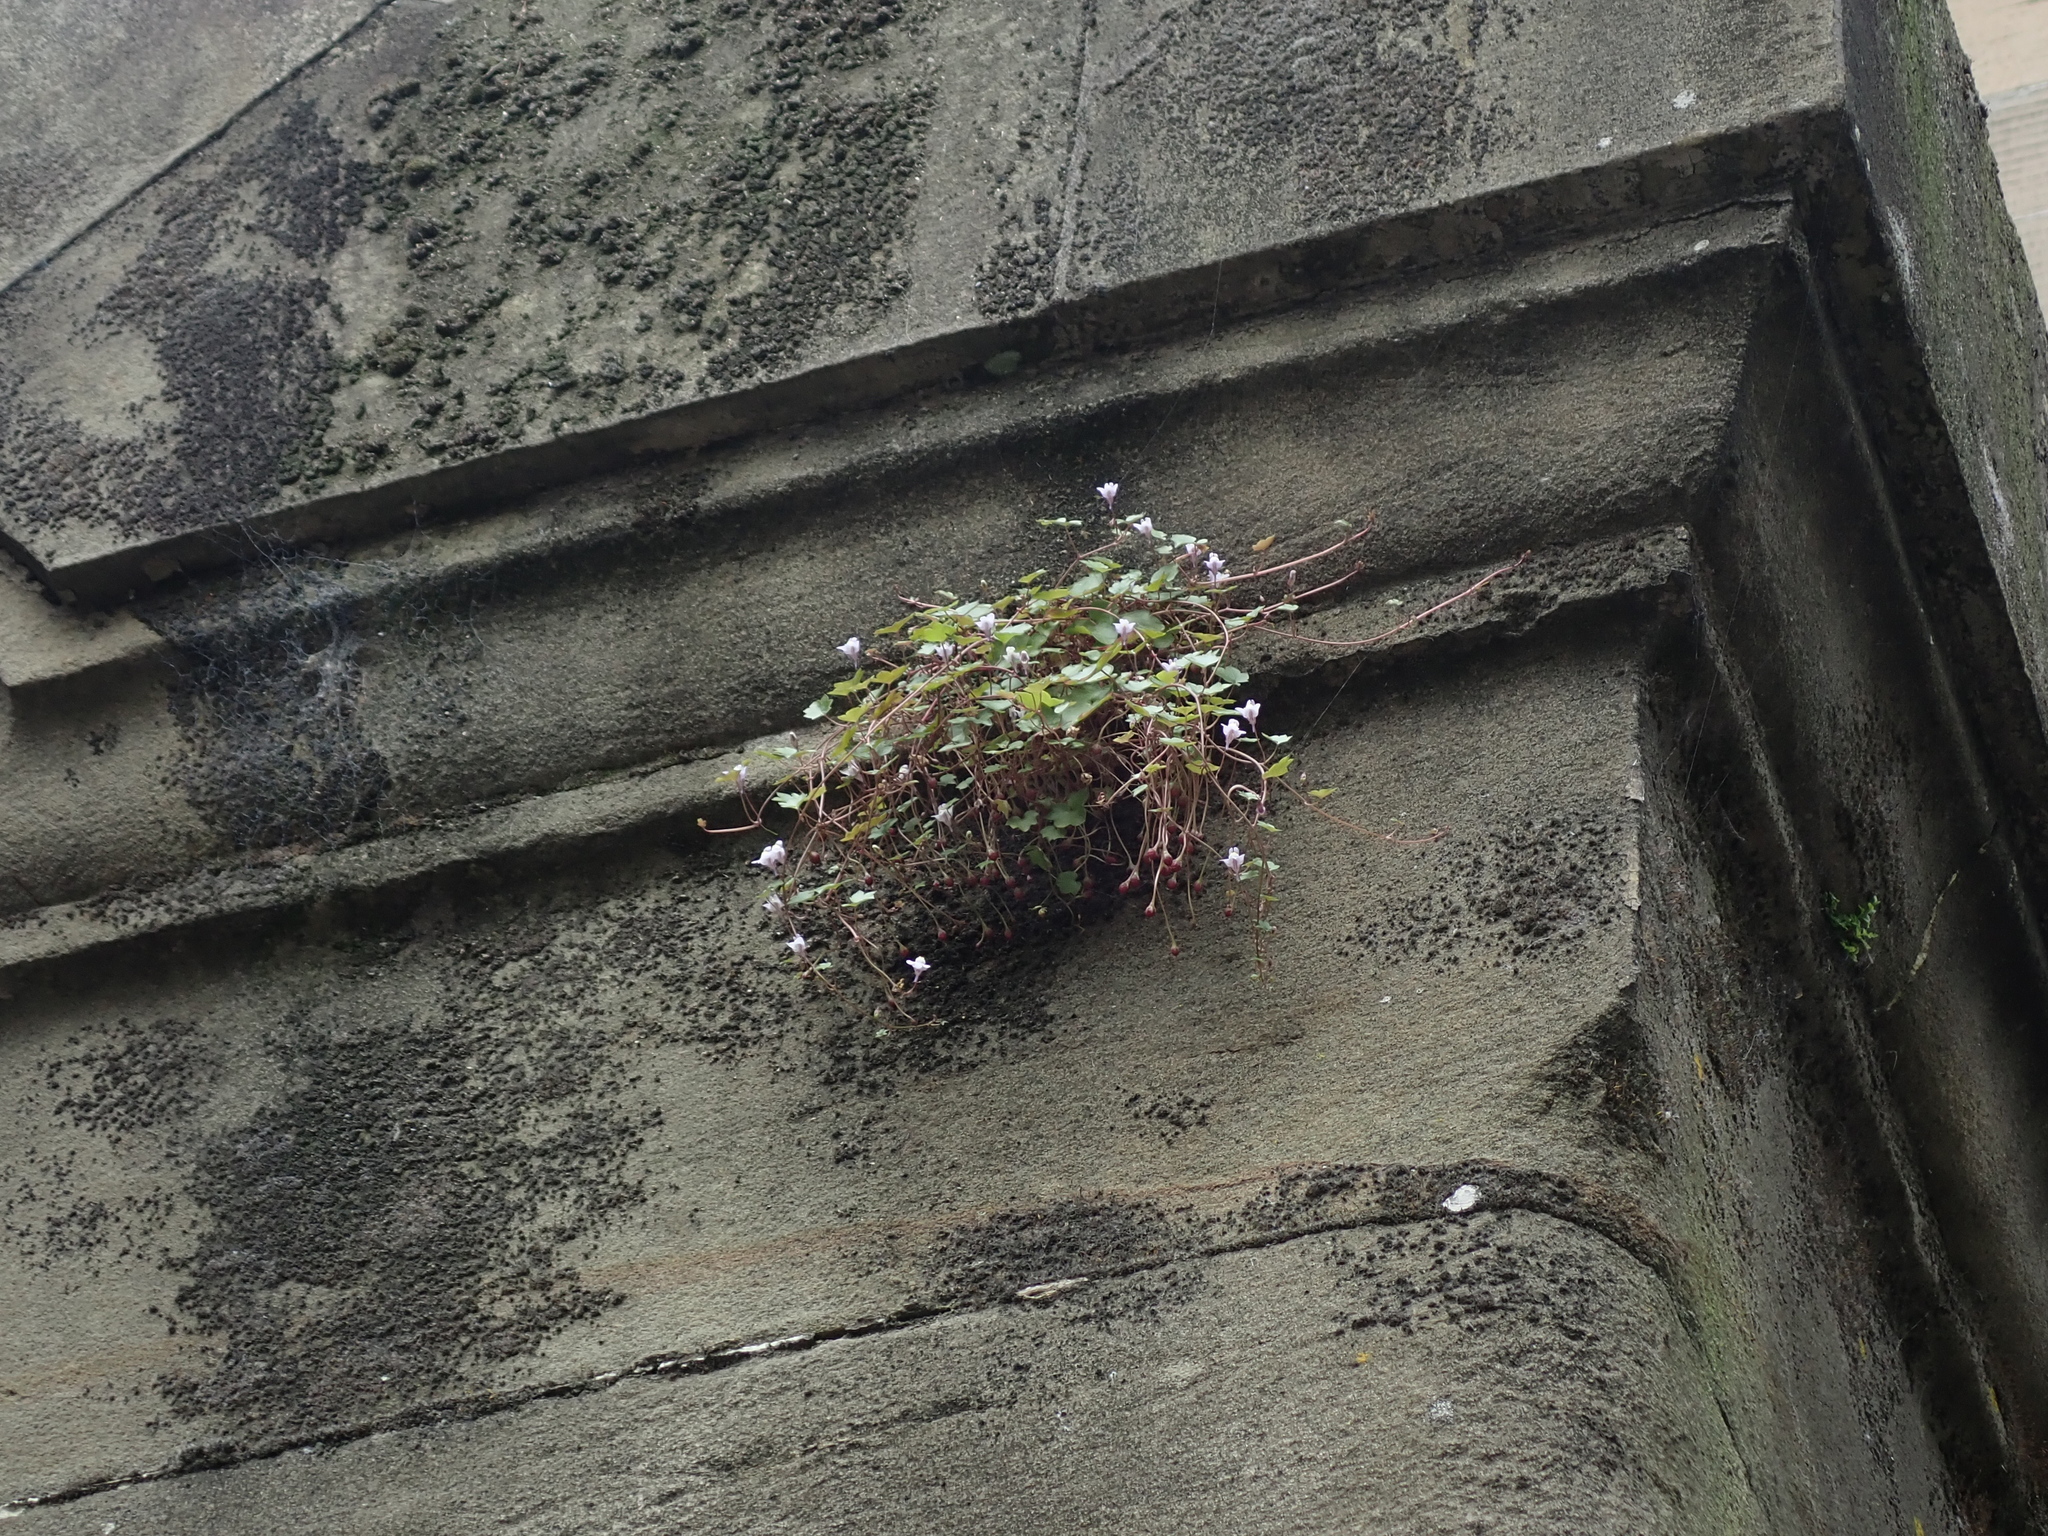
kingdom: Plantae
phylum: Tracheophyta
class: Magnoliopsida
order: Lamiales
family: Plantaginaceae
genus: Cymbalaria
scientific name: Cymbalaria muralis
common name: Ivy-leaved toadflax
